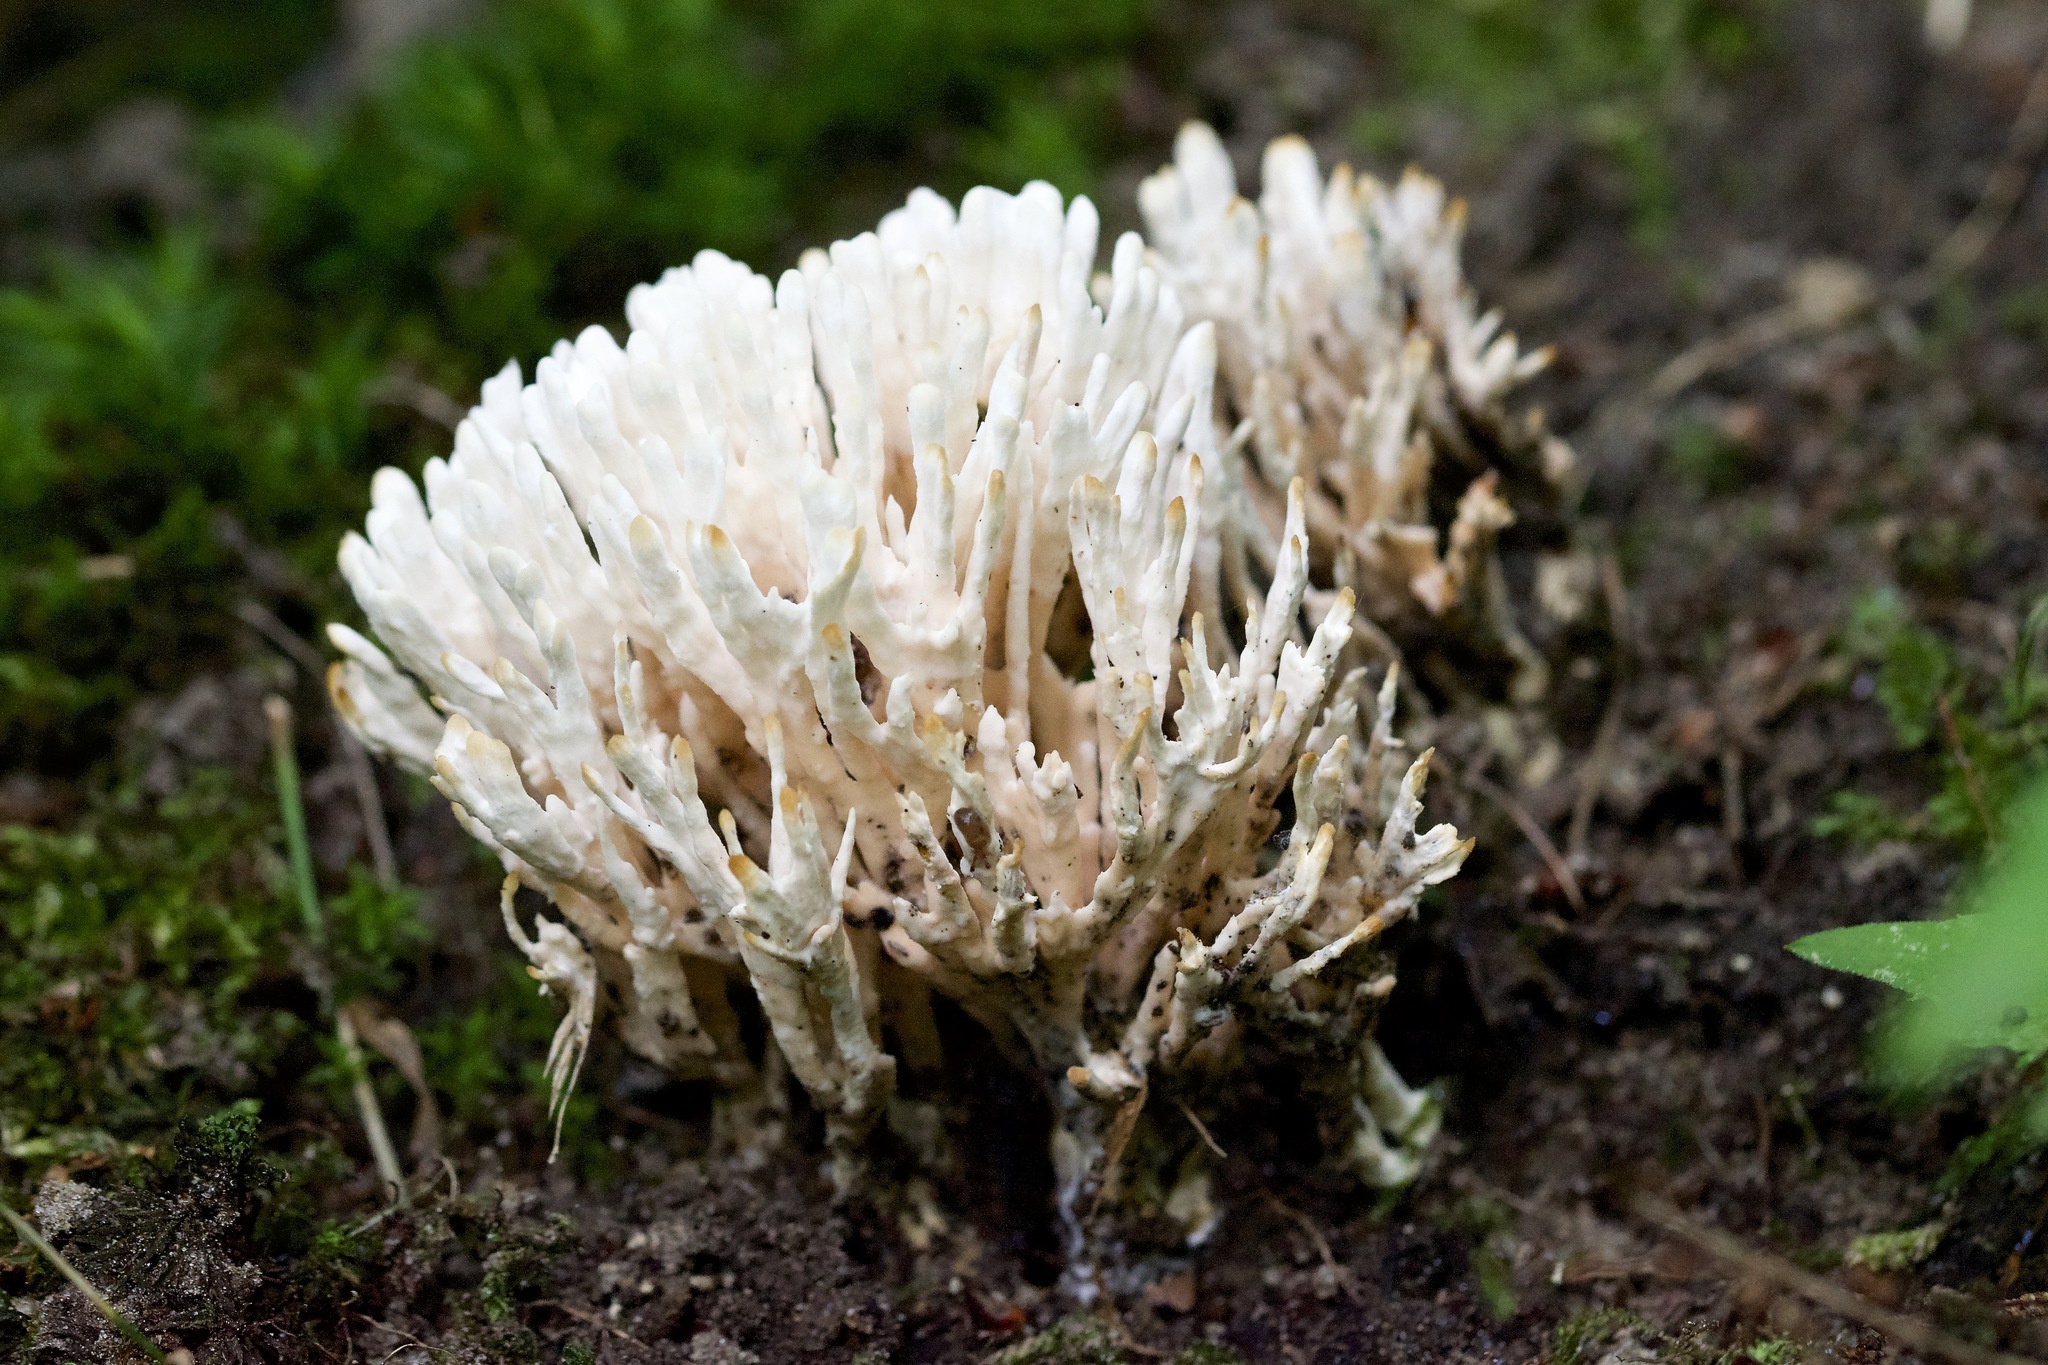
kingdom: Fungi
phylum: Basidiomycota
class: Agaricomycetes
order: Sebacinales
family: Sebacinaceae
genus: Sebacina
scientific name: Sebacina schweinitzii
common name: Jellied false coral fungus
